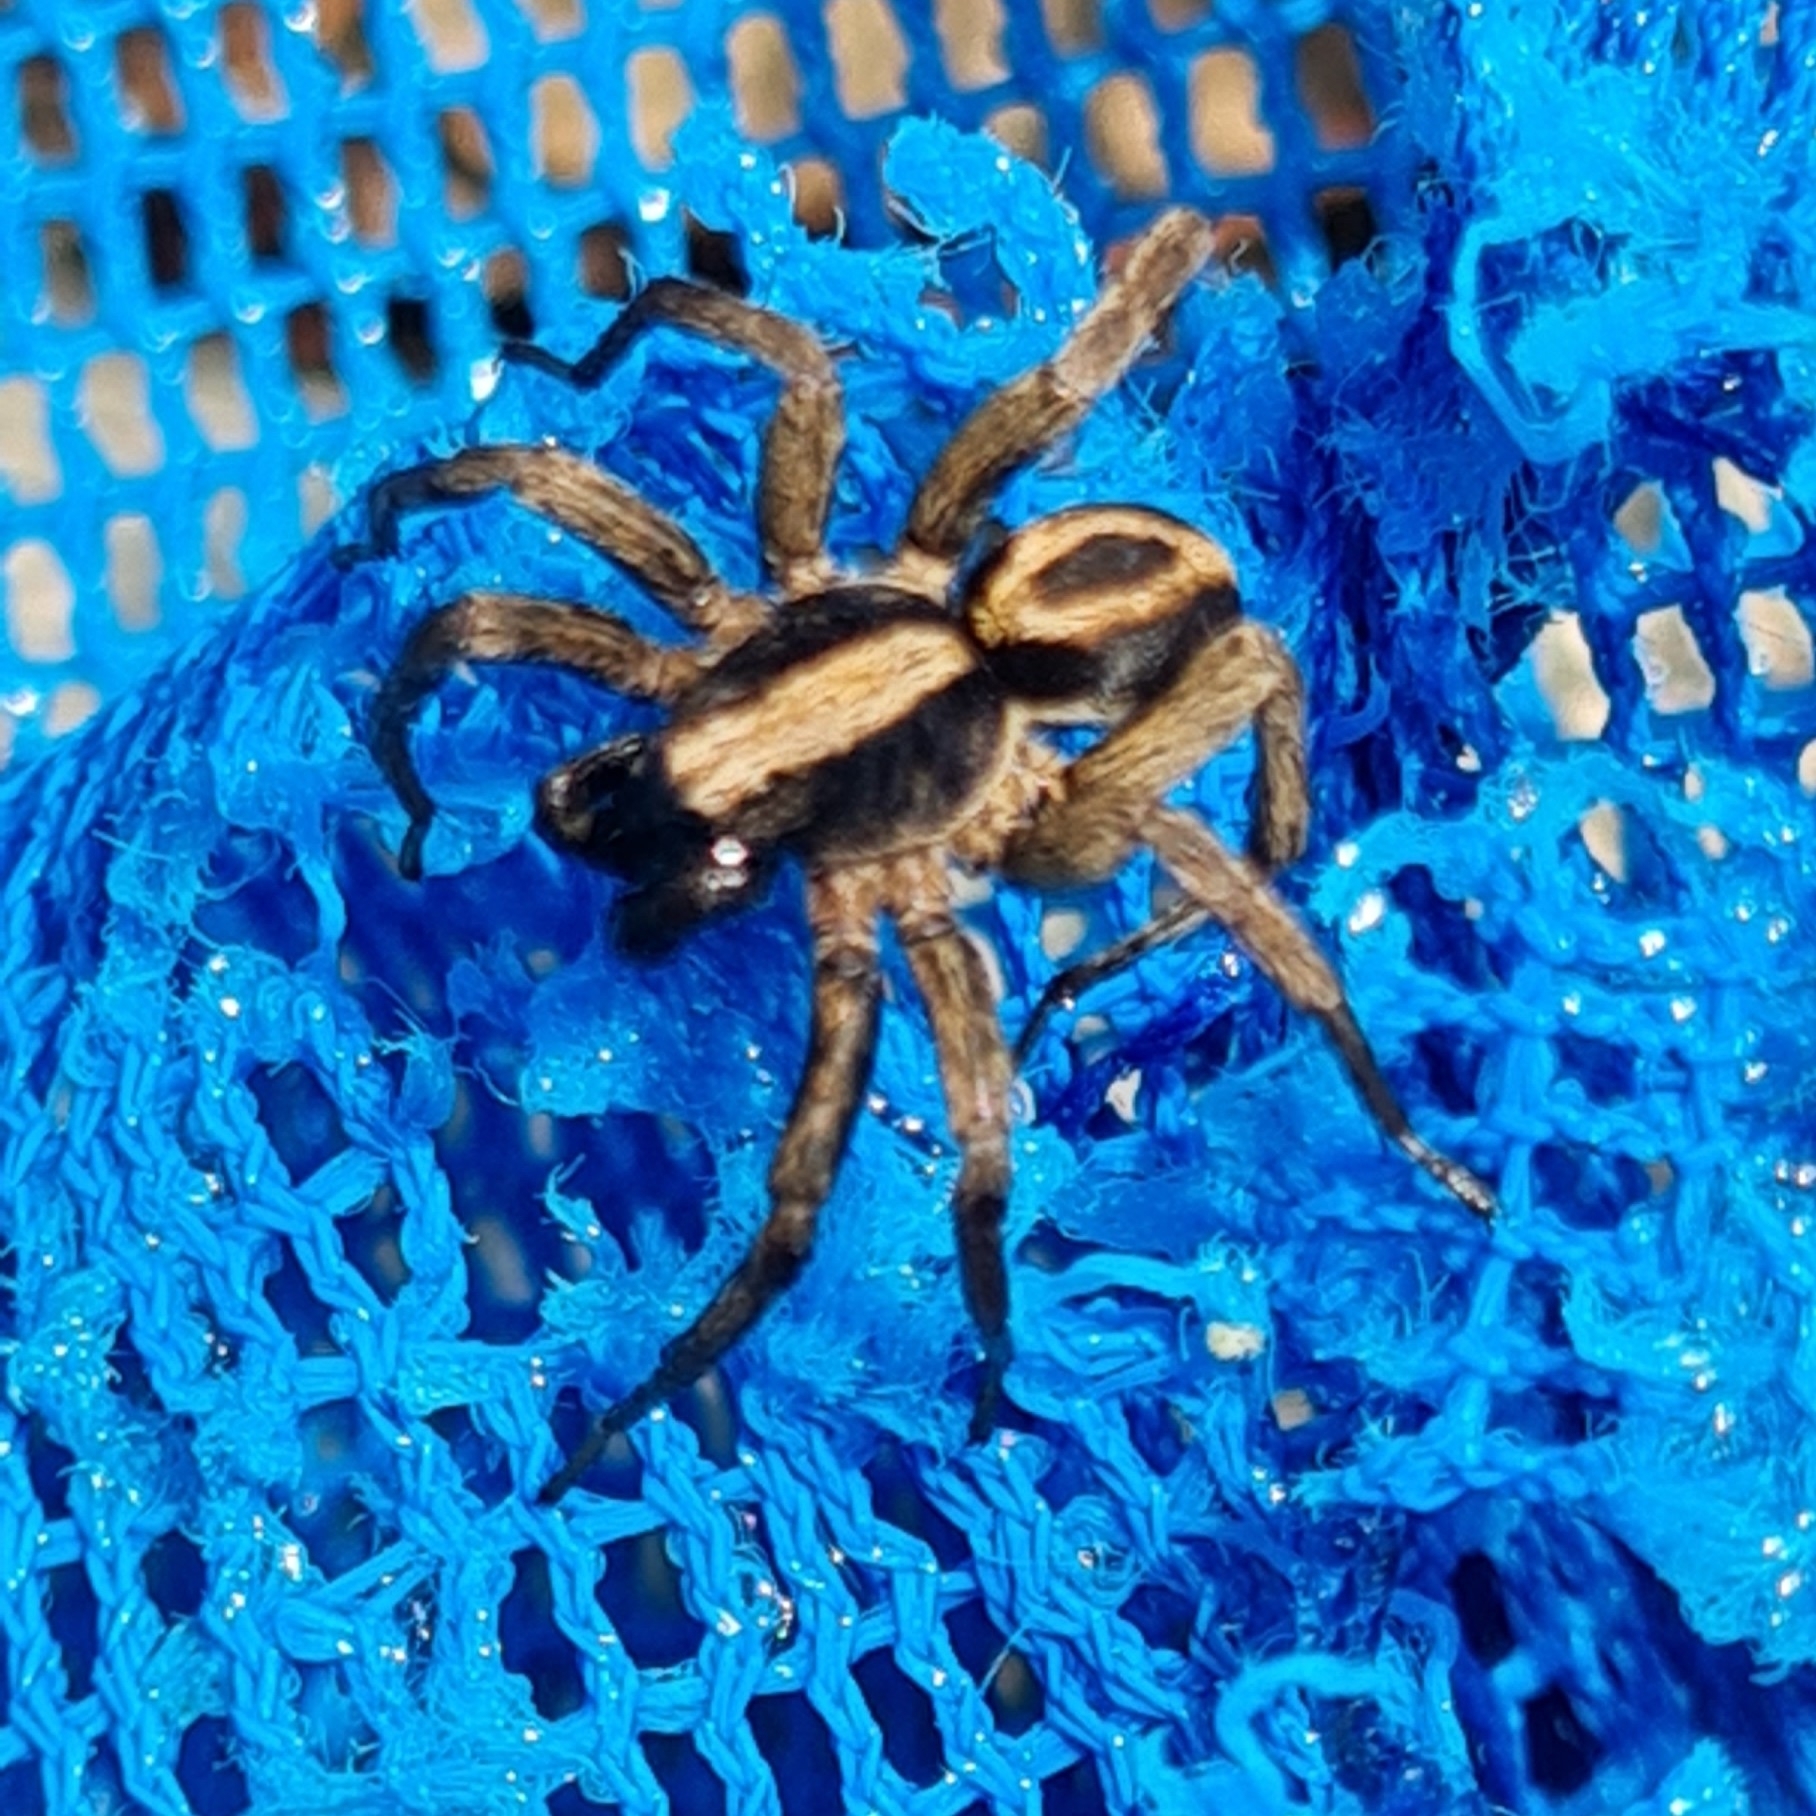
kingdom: Animalia
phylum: Arthropoda
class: Arachnida
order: Araneae
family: Lycosidae
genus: Alopecosa
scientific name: Alopecosa albofasciata
